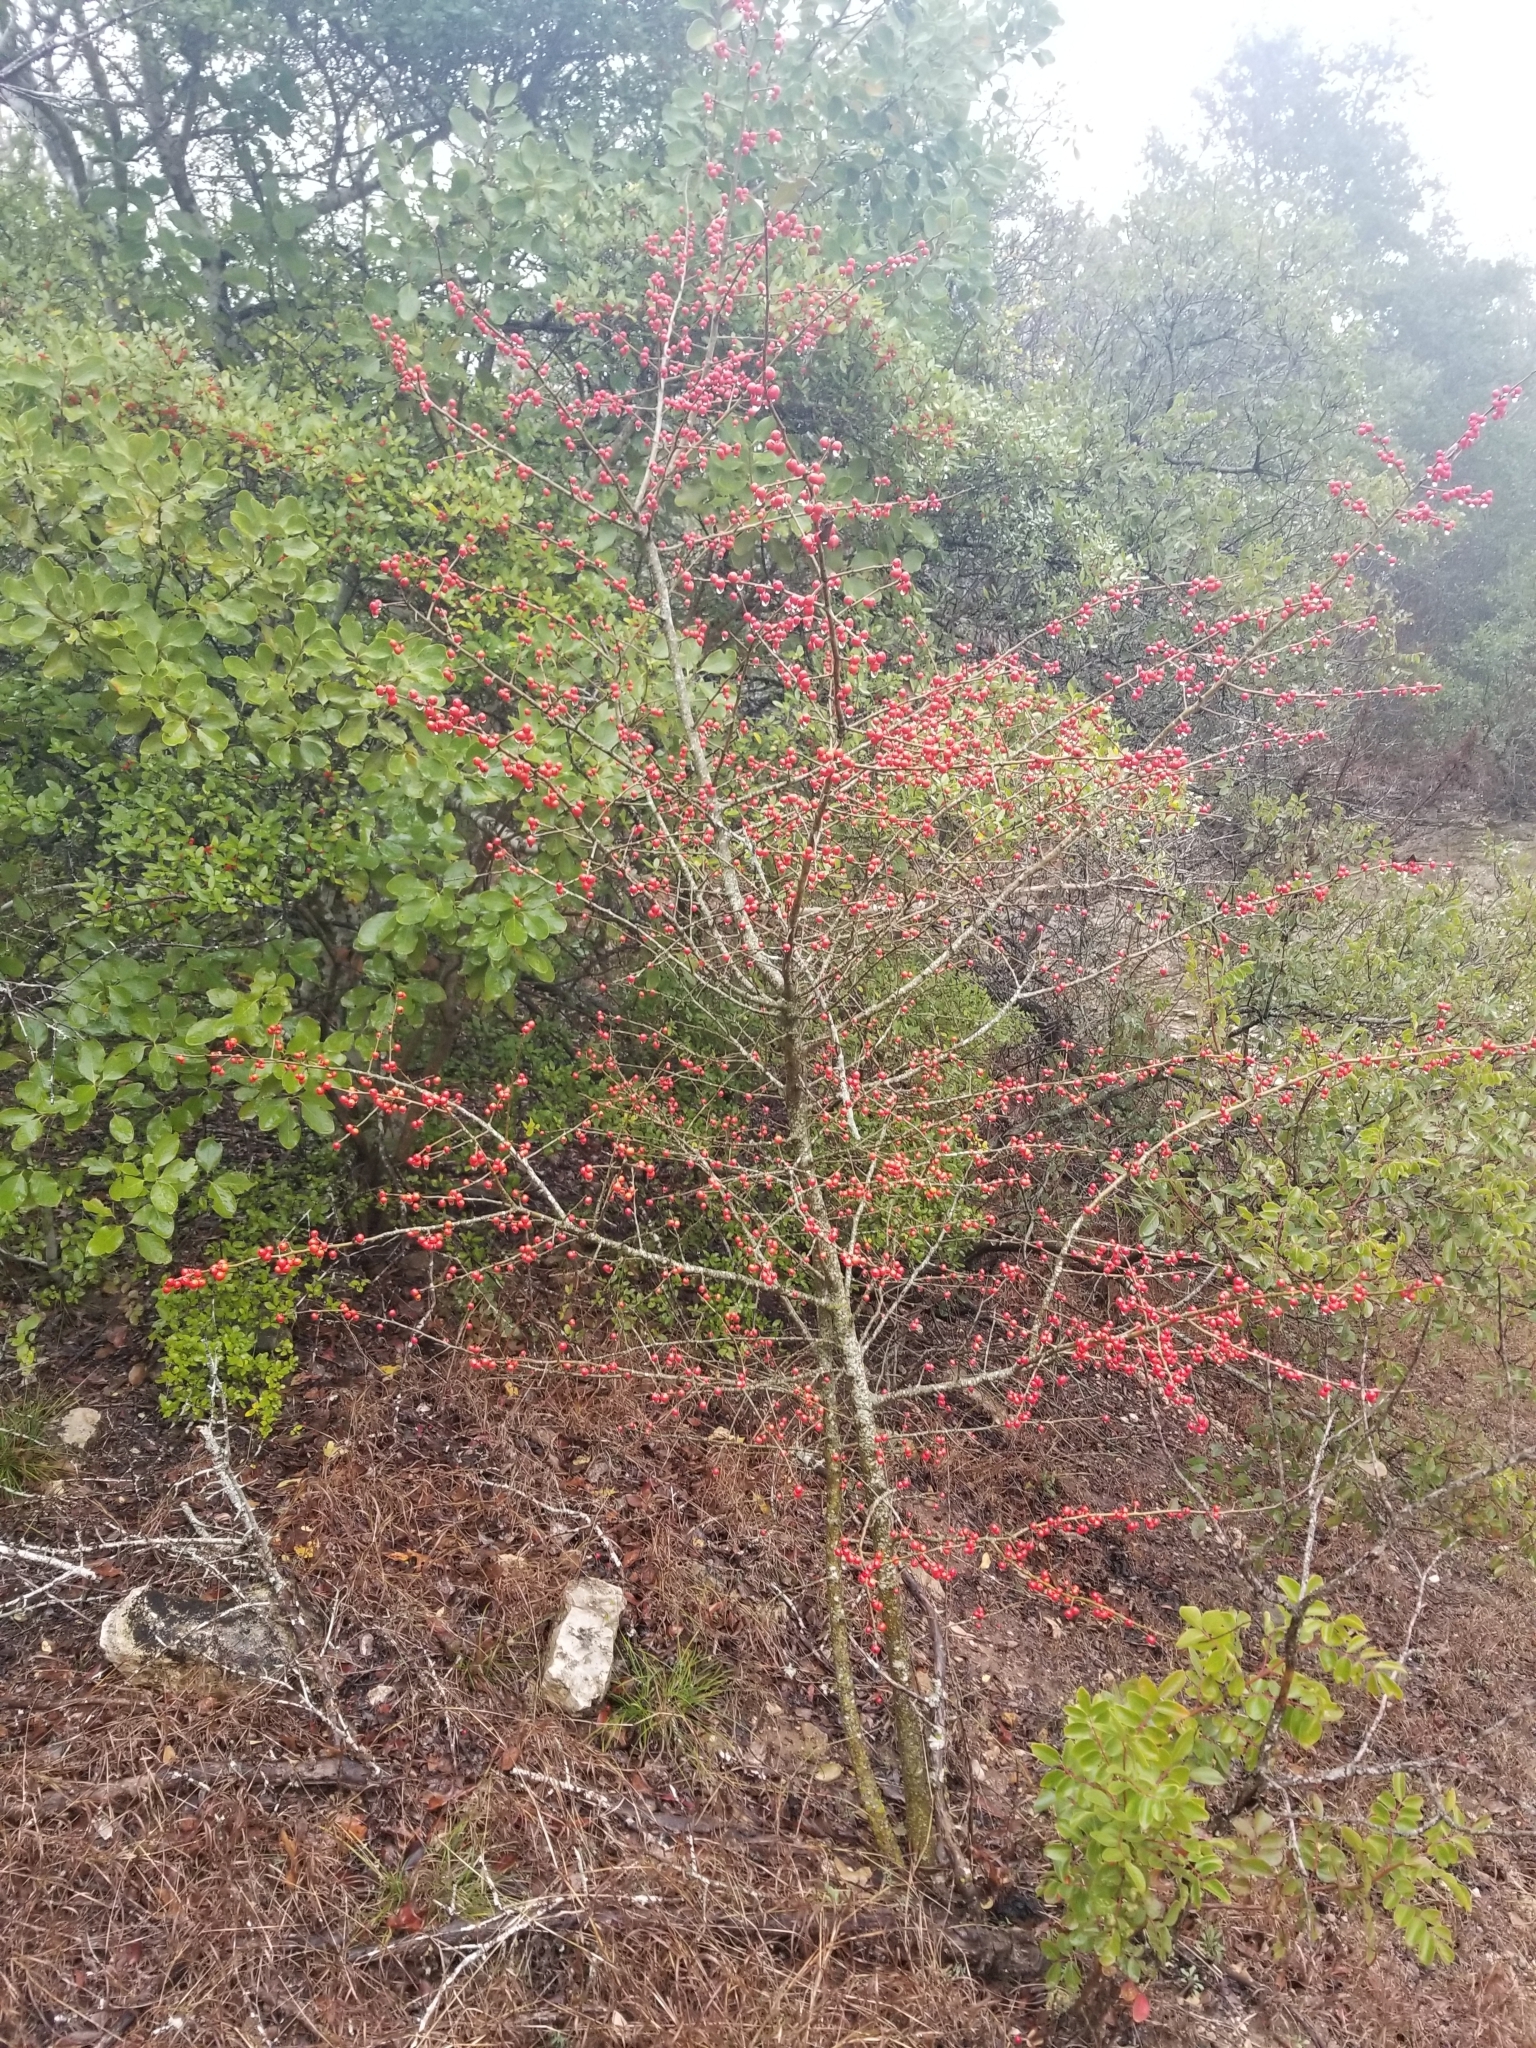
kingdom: Plantae
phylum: Tracheophyta
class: Magnoliopsida
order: Aquifoliales
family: Aquifoliaceae
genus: Ilex
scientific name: Ilex decidua
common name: Possum-haw
